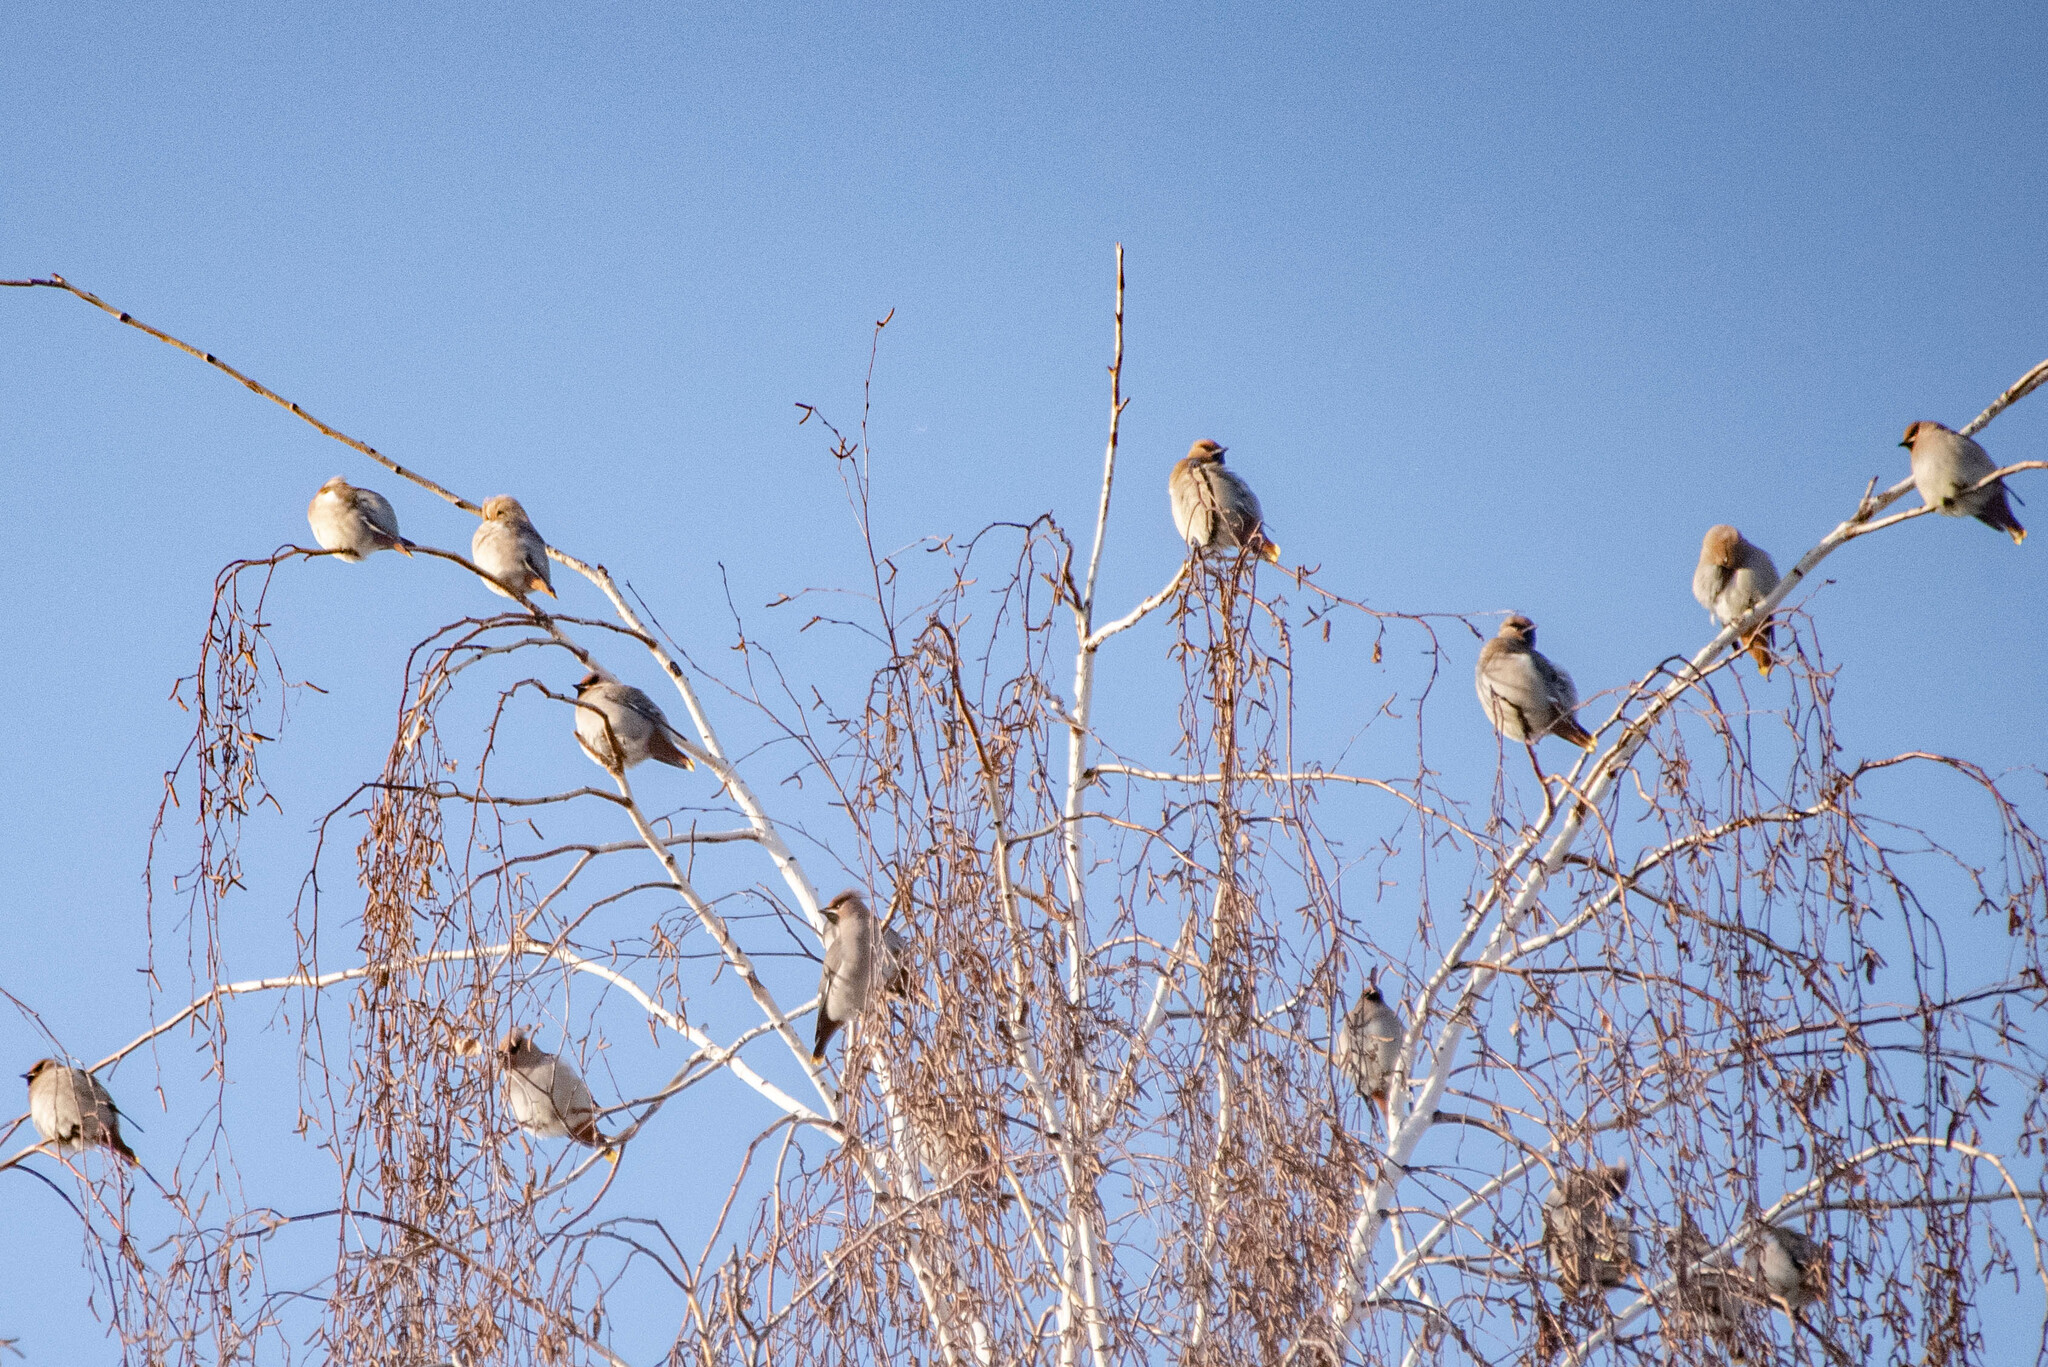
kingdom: Animalia
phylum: Chordata
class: Aves
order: Passeriformes
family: Bombycillidae
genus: Bombycilla
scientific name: Bombycilla garrulus
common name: Bohemian waxwing
